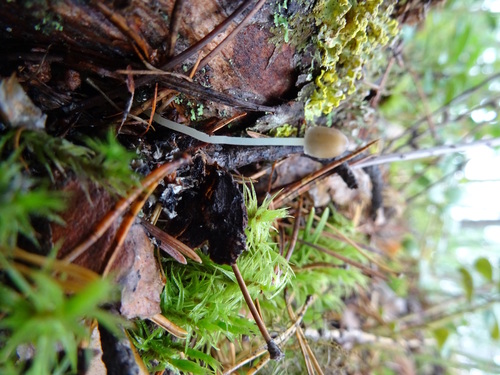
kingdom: Fungi
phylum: Basidiomycota
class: Agaricomycetes
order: Agaricales
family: Mycenaceae
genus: Mycena
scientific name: Mycena
